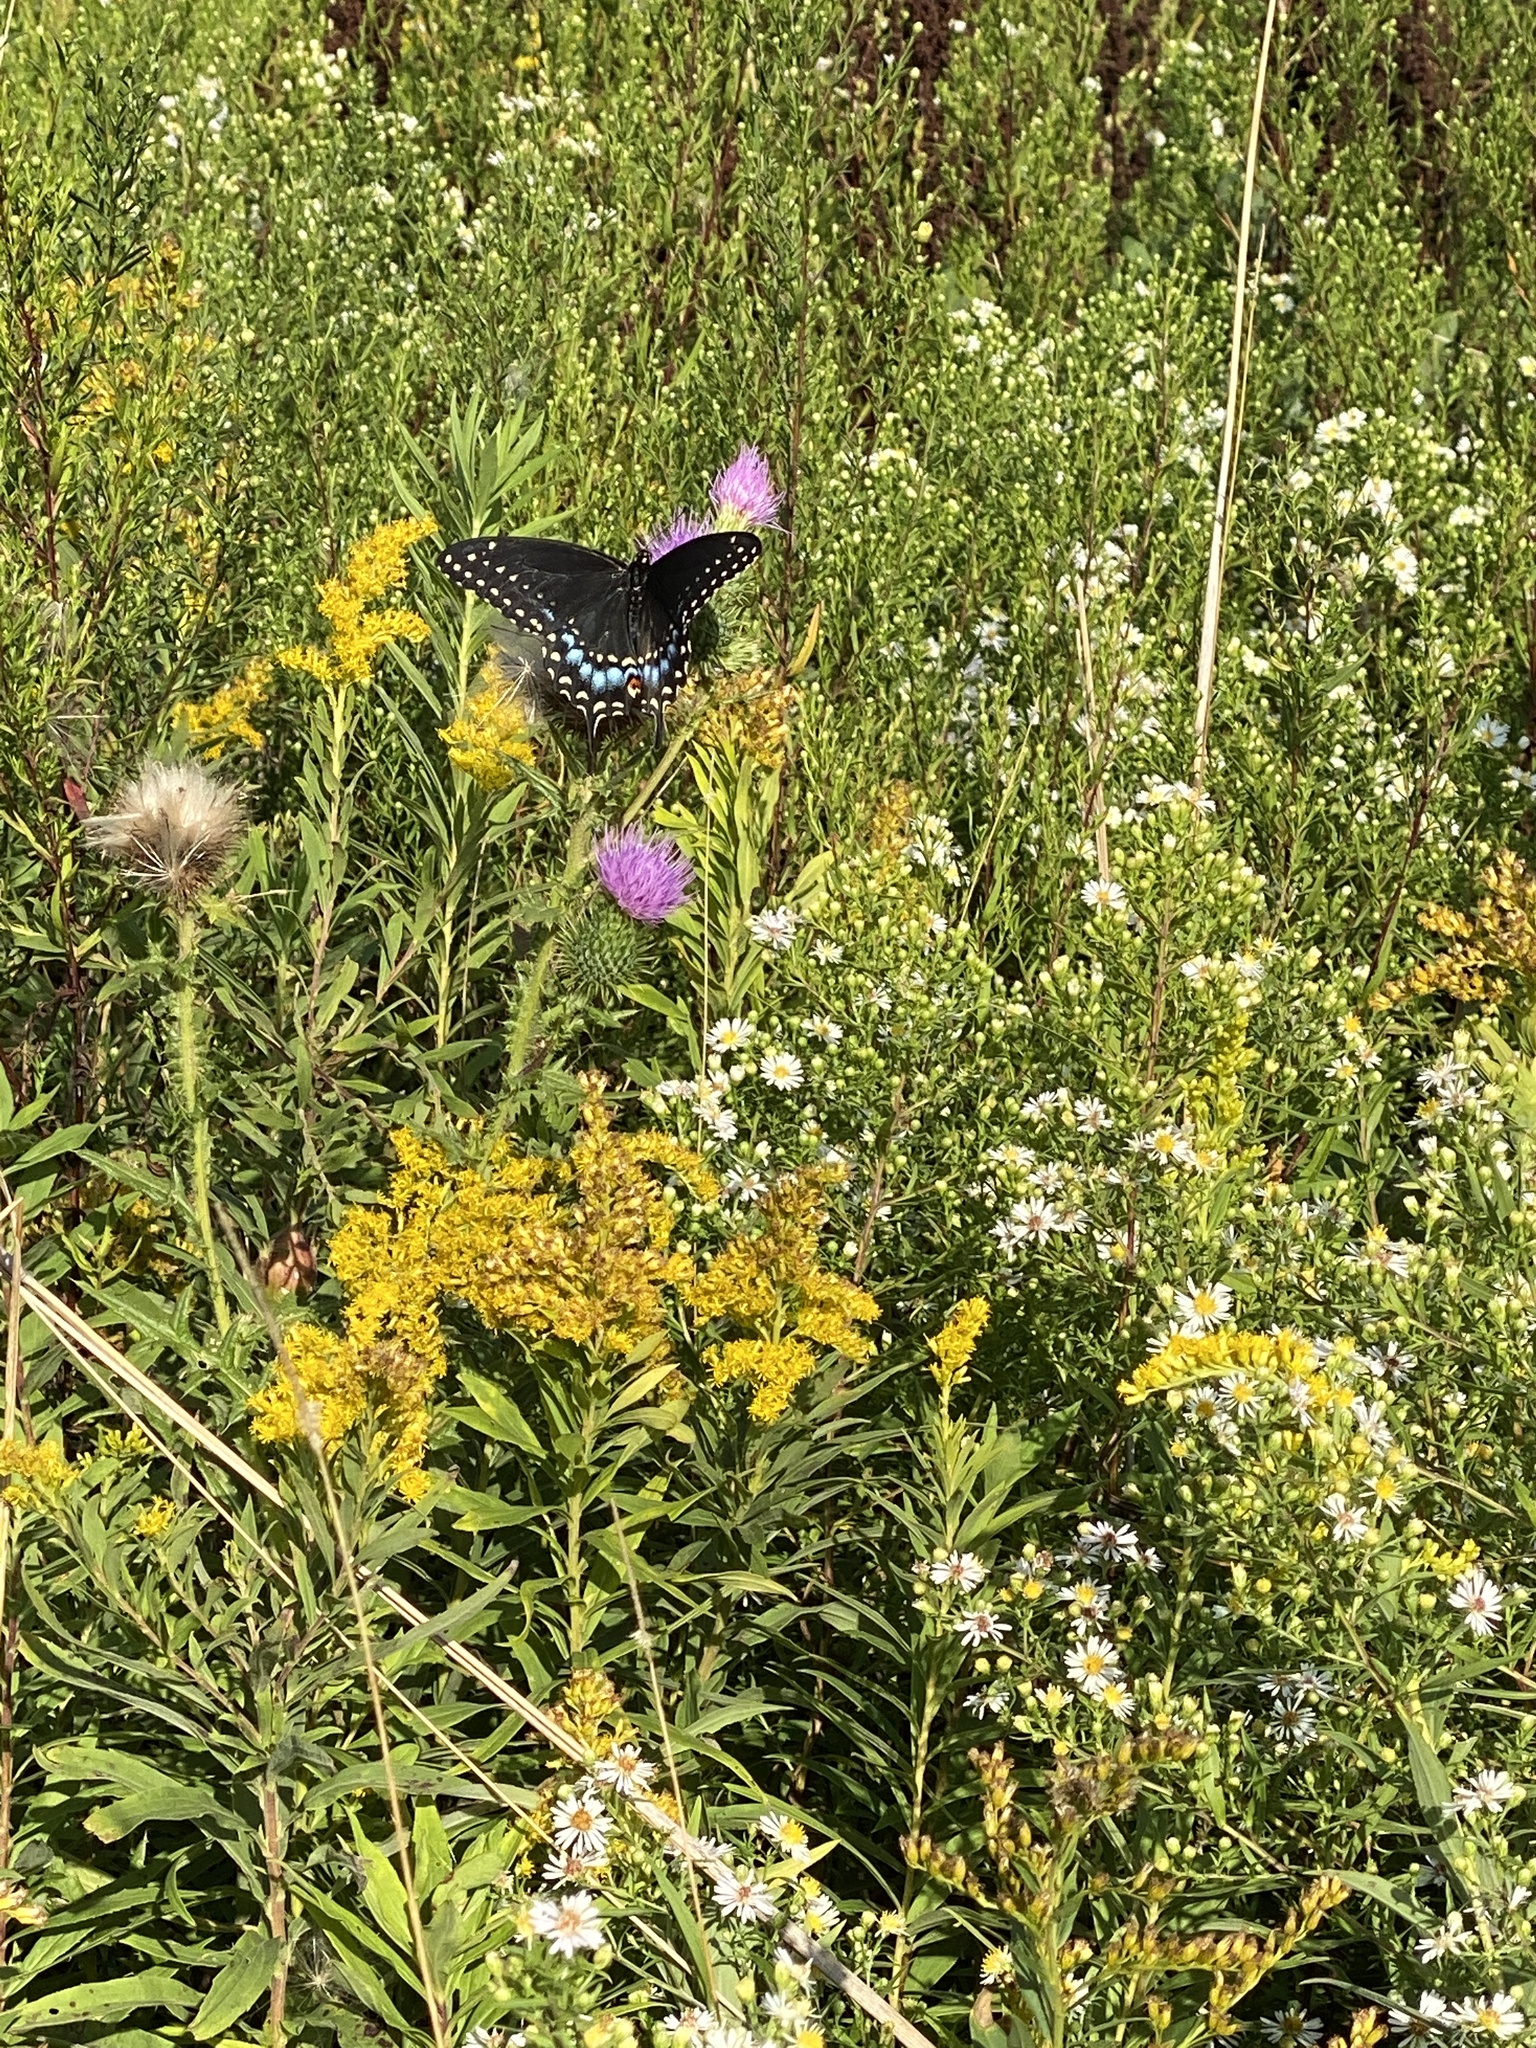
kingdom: Animalia
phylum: Arthropoda
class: Insecta
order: Lepidoptera
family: Papilionidae
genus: Papilio
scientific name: Papilio polyxenes
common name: Black swallowtail
